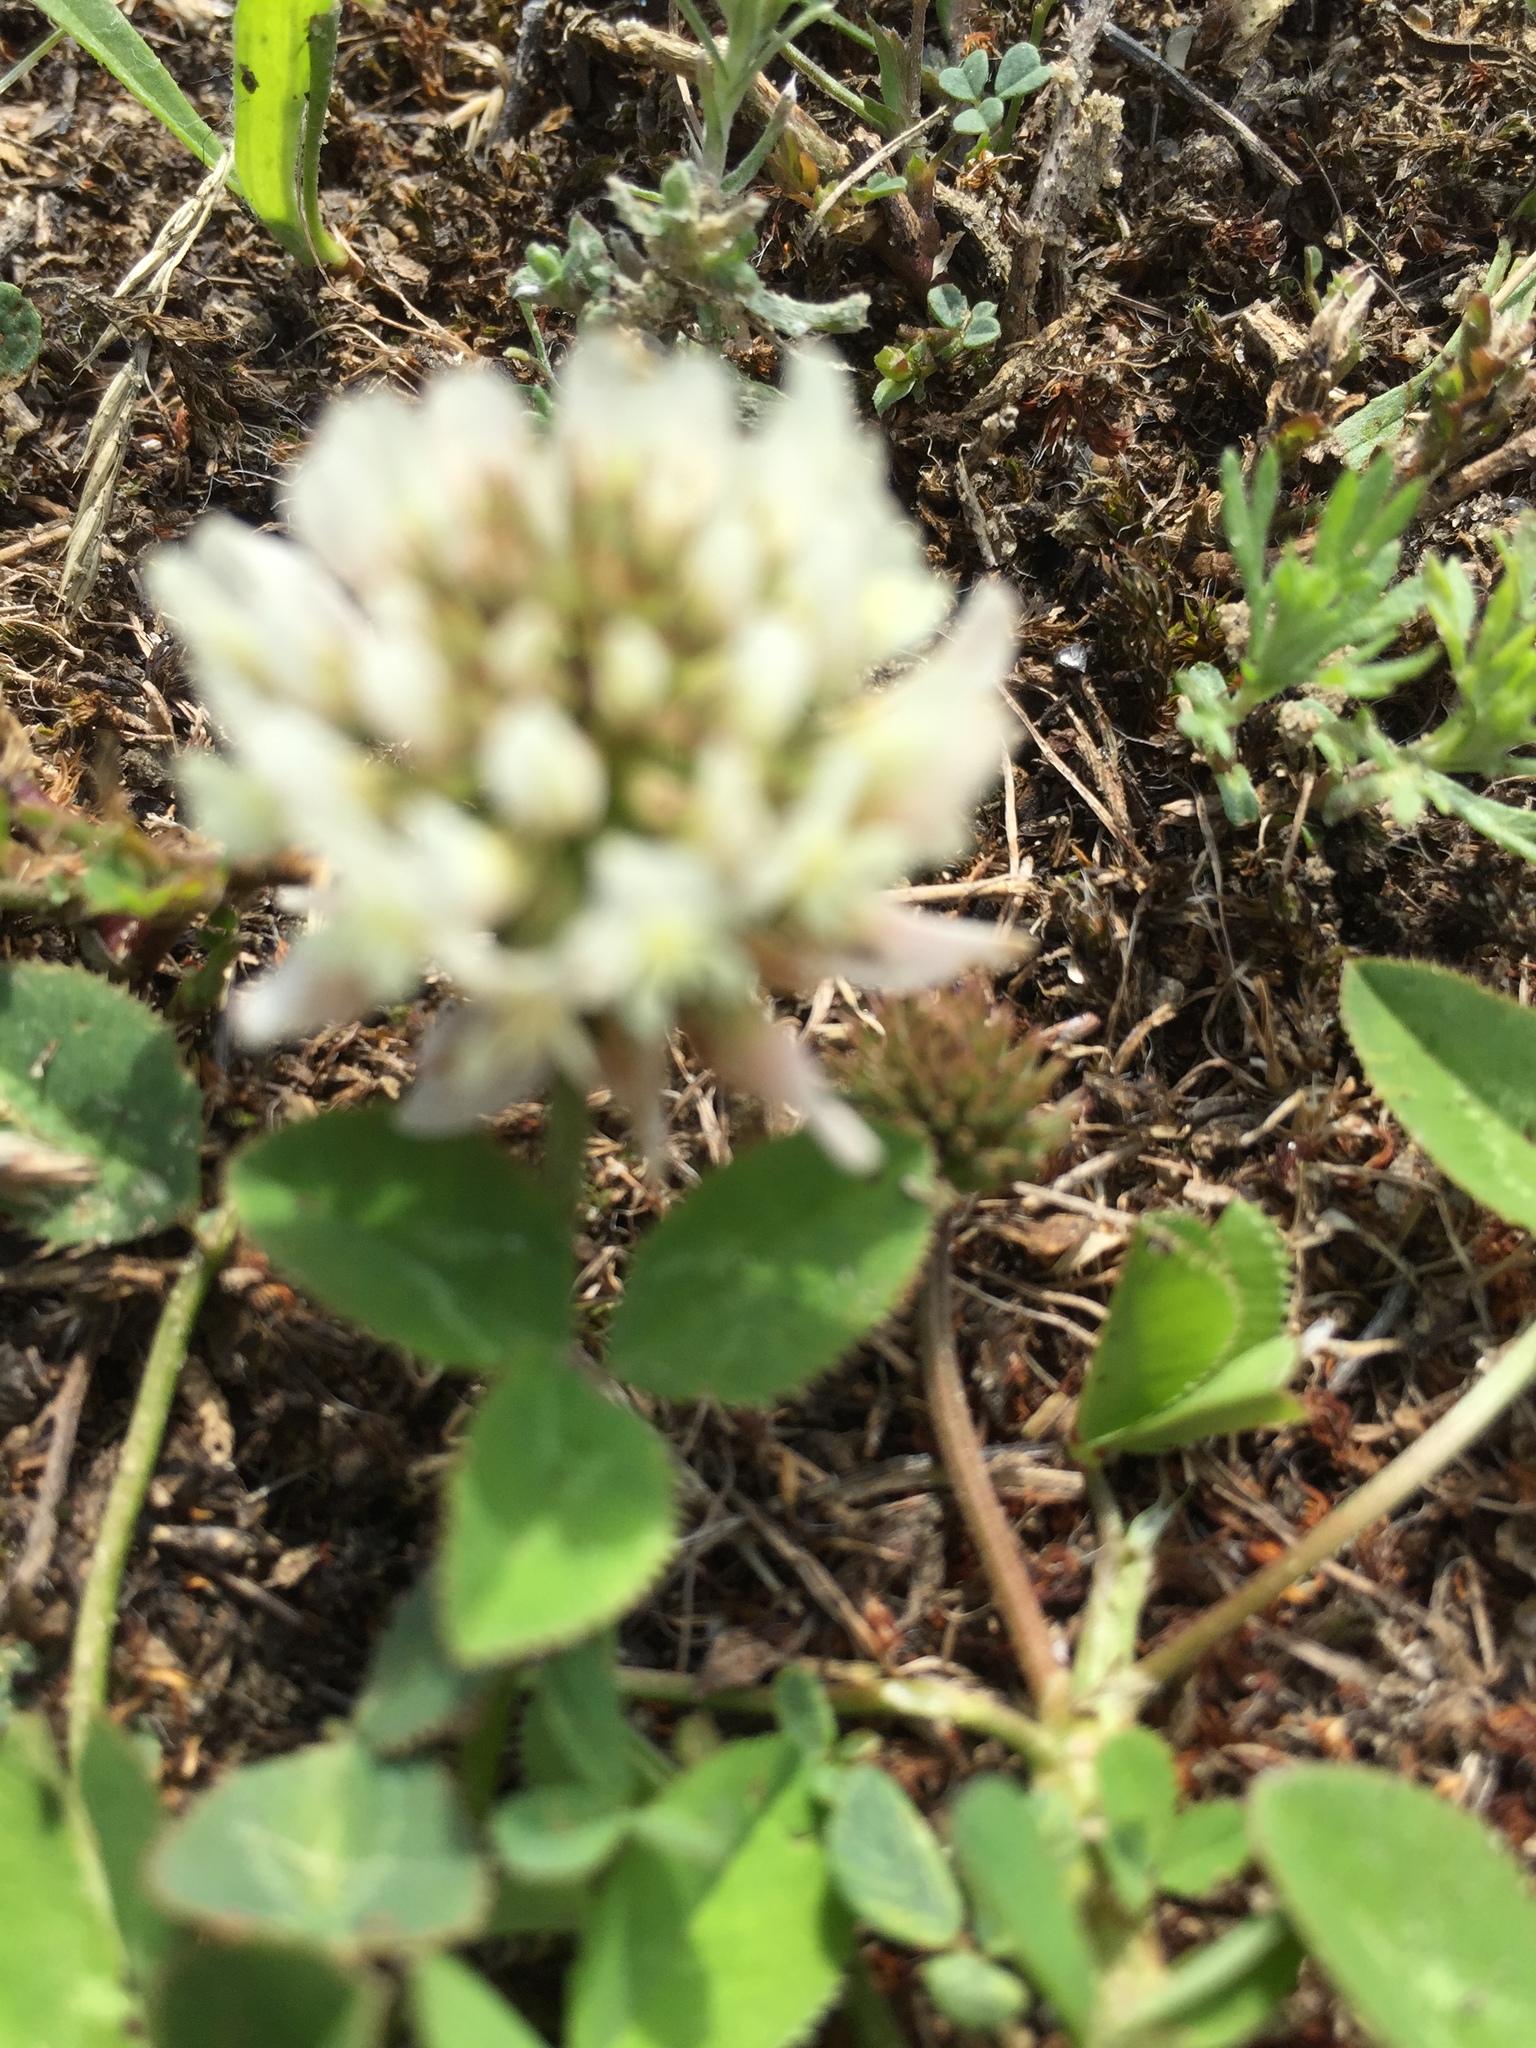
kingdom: Plantae
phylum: Tracheophyta
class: Magnoliopsida
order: Fabales
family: Fabaceae
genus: Trifolium
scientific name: Trifolium repens
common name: White clover
